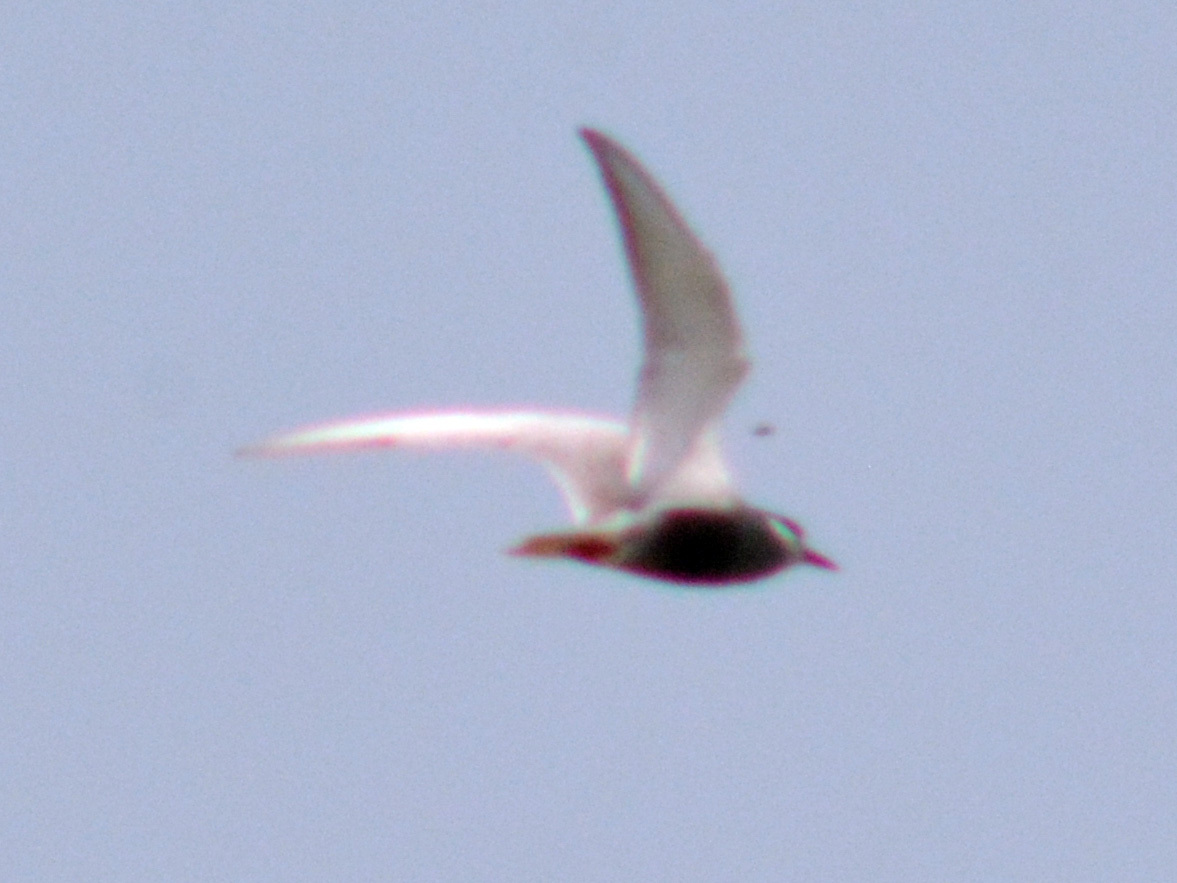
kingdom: Animalia
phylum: Chordata
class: Aves
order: Charadriiformes
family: Laridae
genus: Chlidonias
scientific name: Chlidonias hybrida
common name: Whiskered tern
